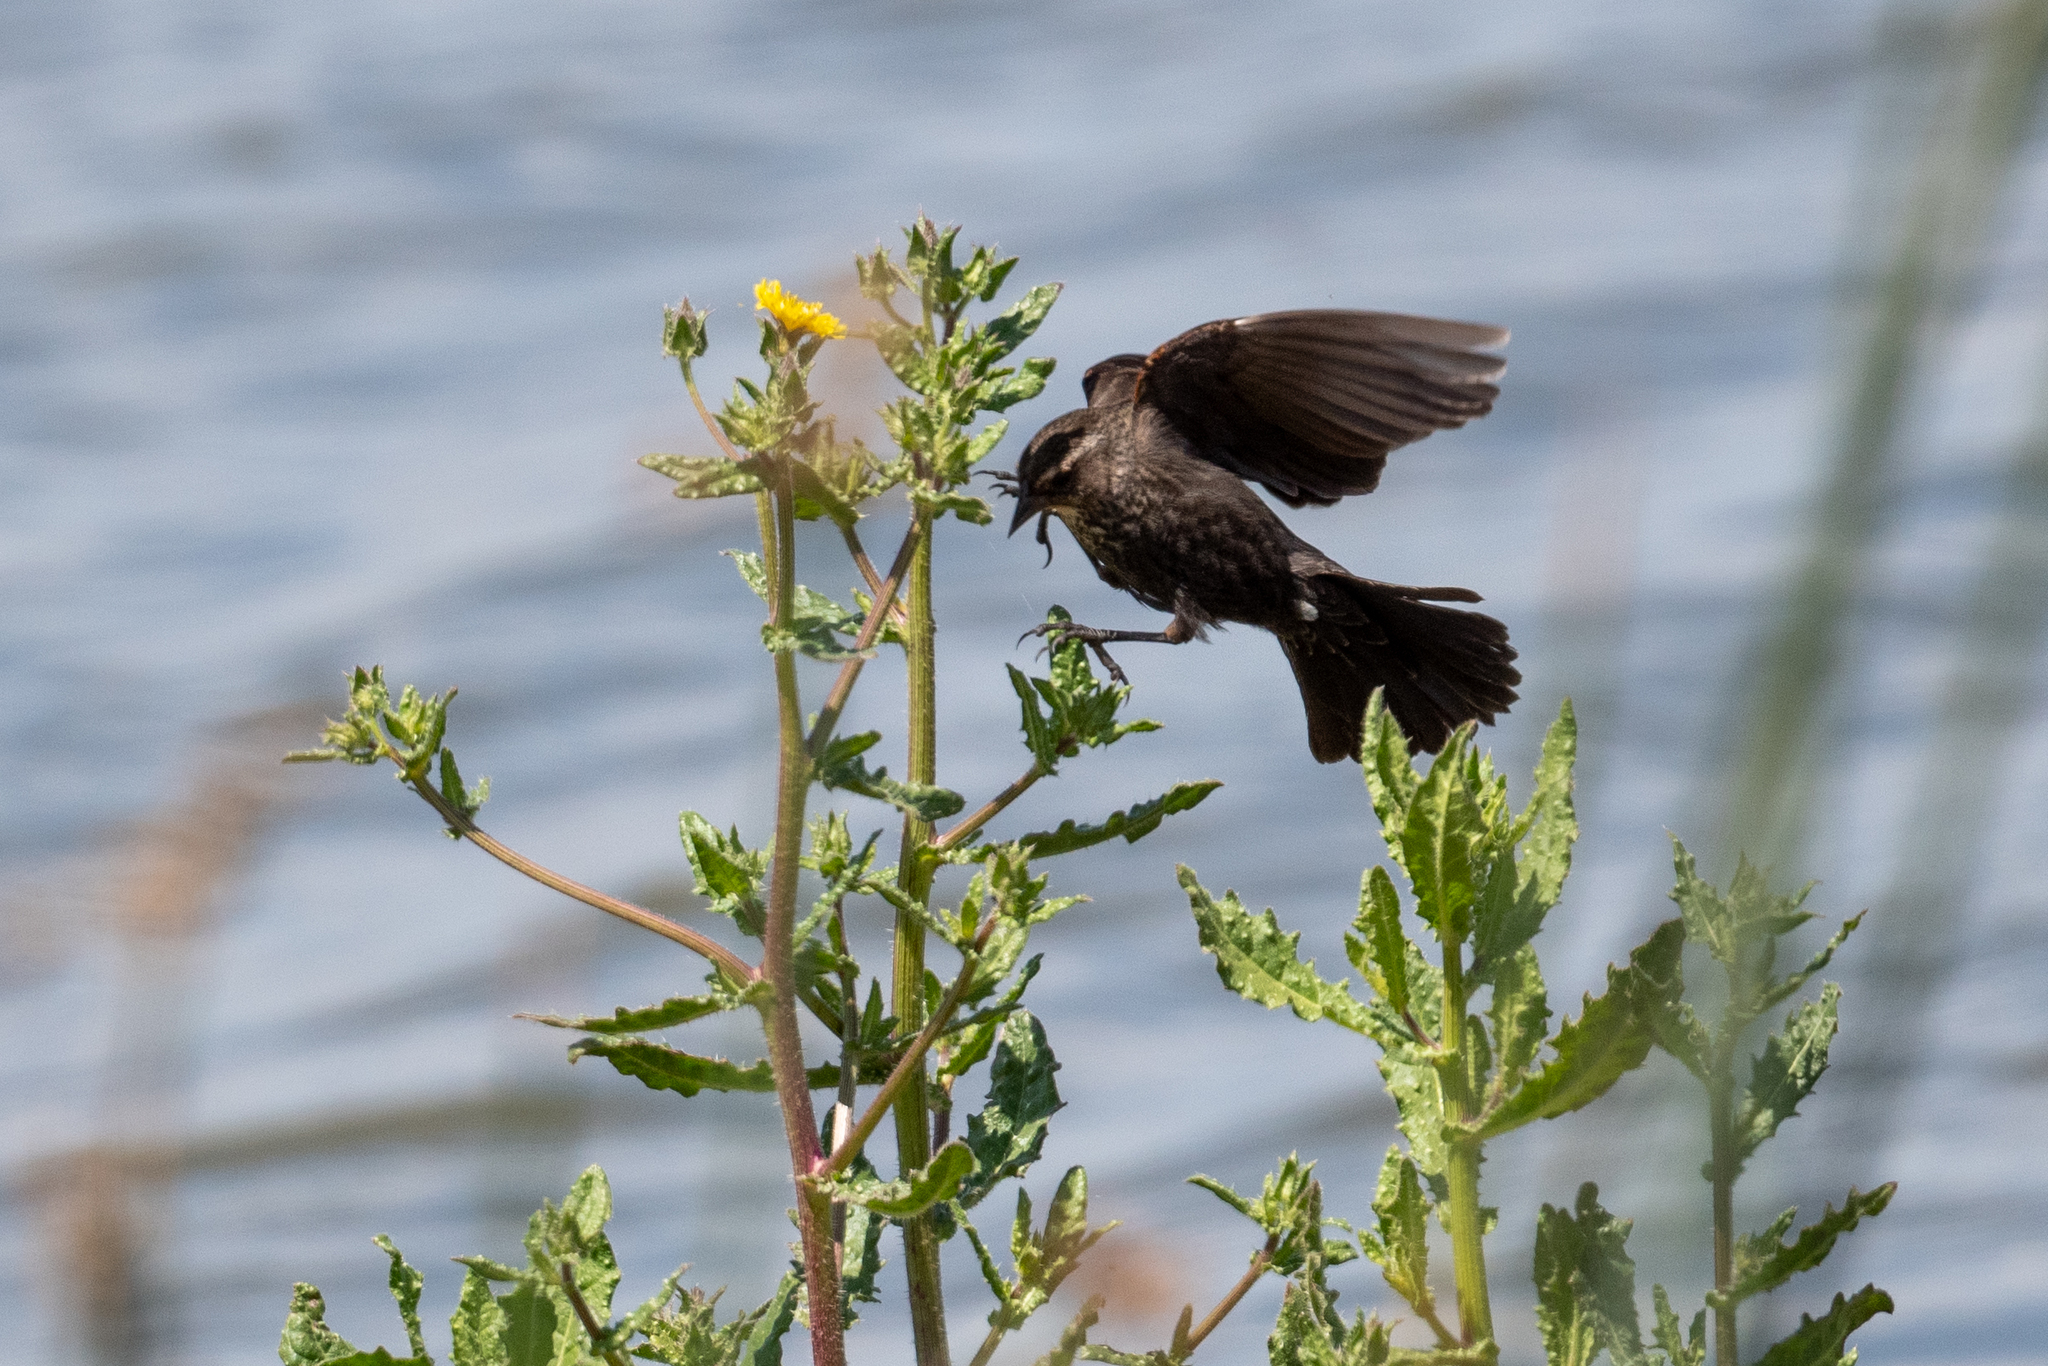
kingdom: Animalia
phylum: Chordata
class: Aves
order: Passeriformes
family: Icteridae
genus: Agelaius
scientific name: Agelaius phoeniceus
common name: Red-winged blackbird
